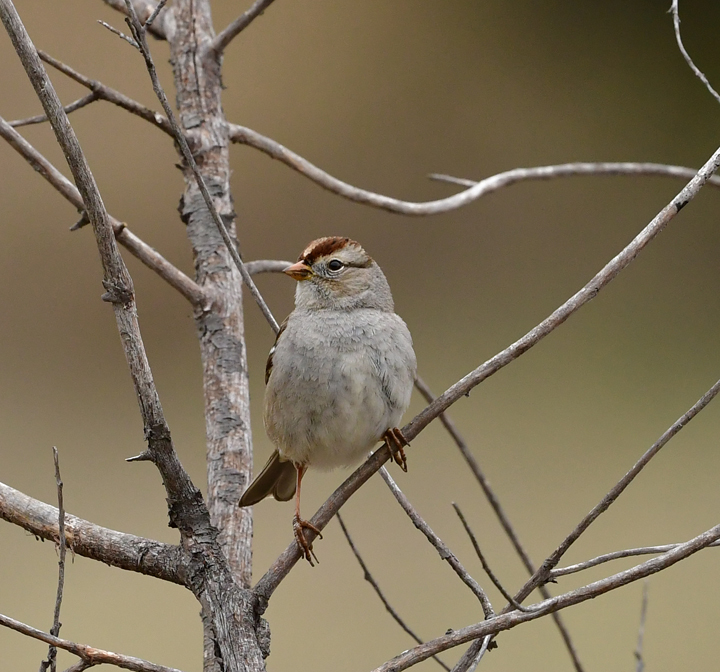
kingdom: Animalia
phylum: Chordata
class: Aves
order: Passeriformes
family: Passerellidae
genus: Zonotrichia
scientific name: Zonotrichia leucophrys
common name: White-crowned sparrow
